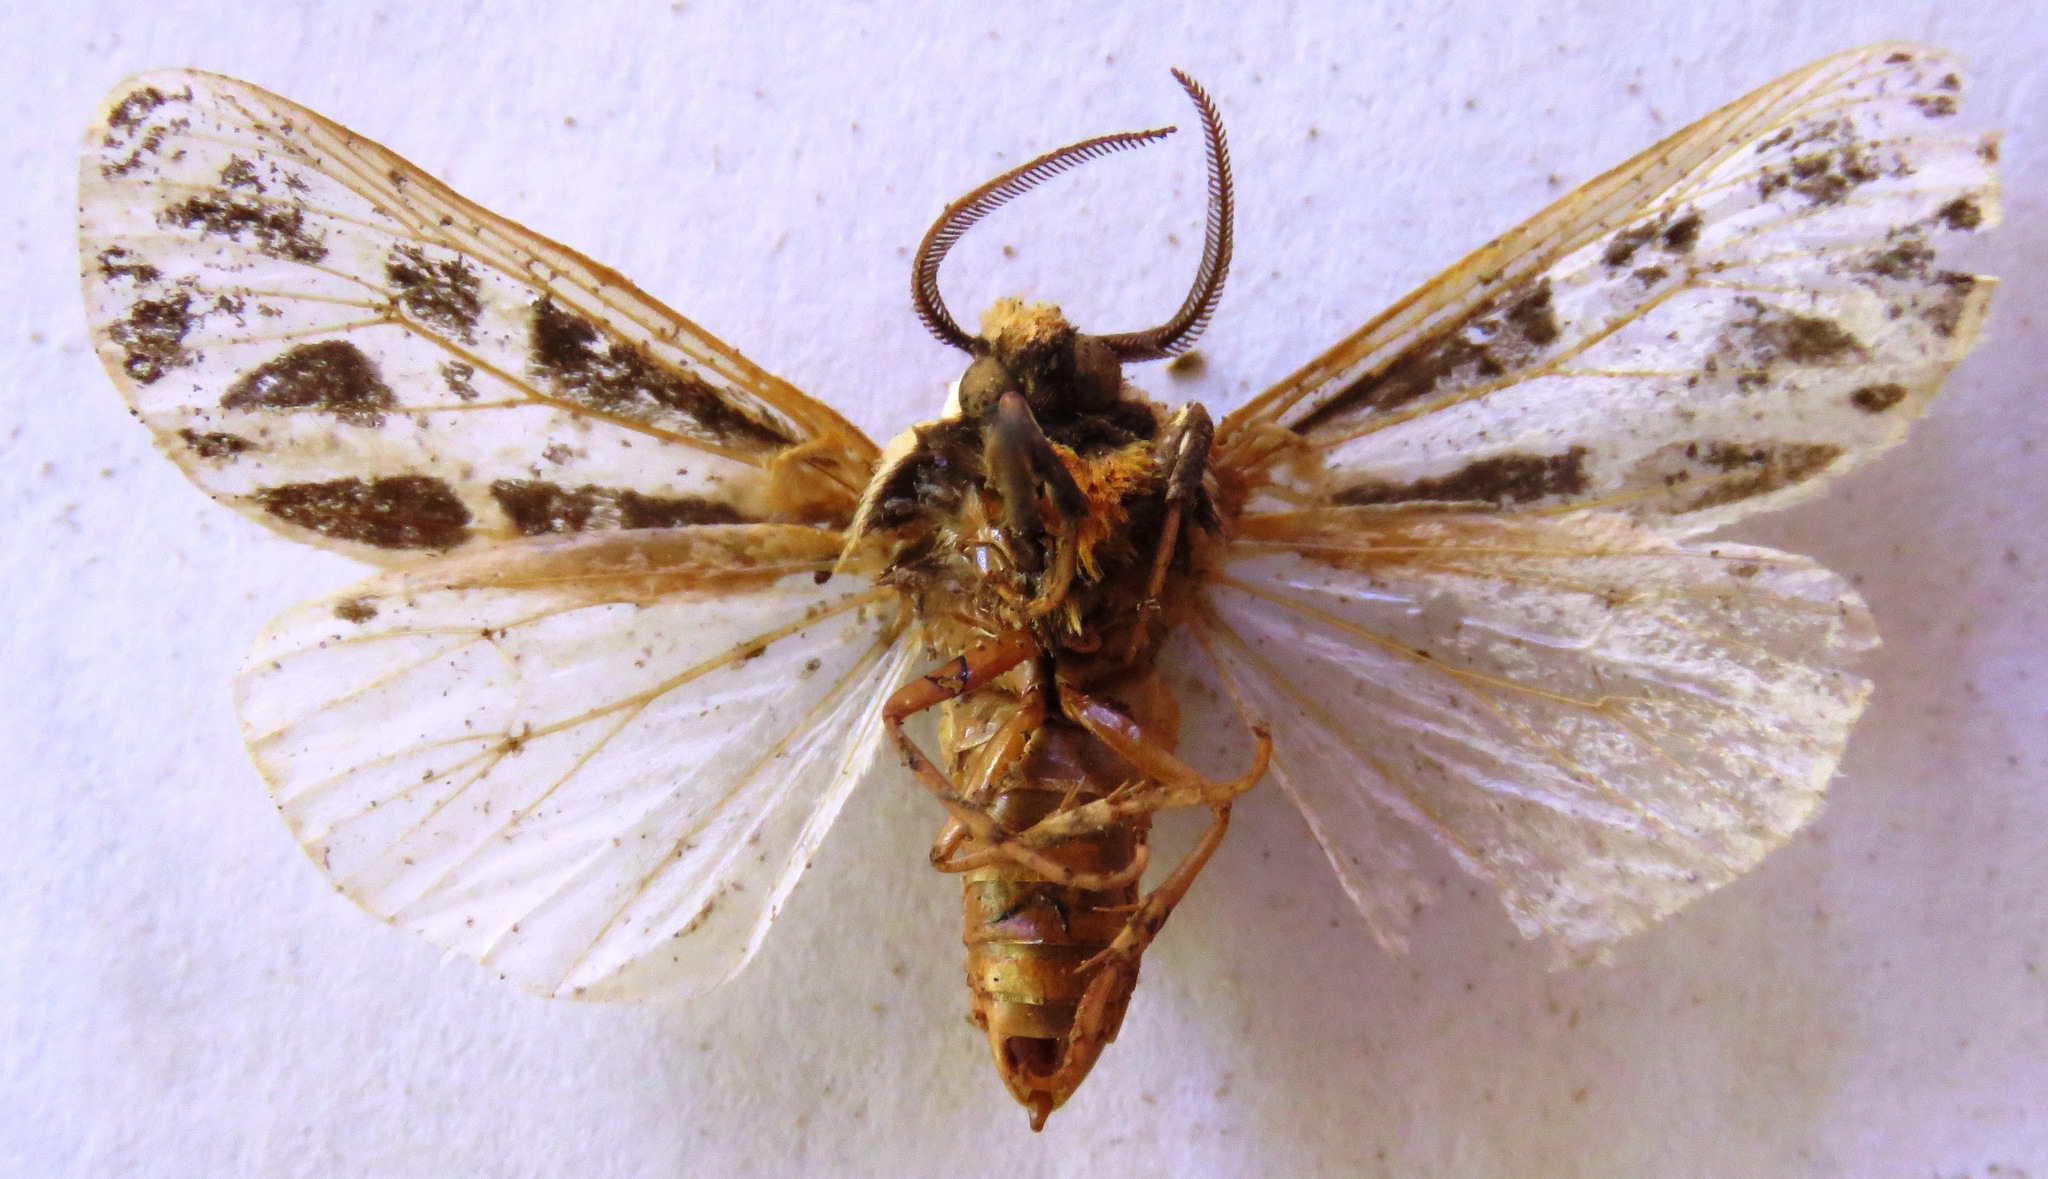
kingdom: Animalia
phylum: Arthropoda
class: Insecta
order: Lepidoptera
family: Erebidae
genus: Apantesis
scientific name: Apantesis
